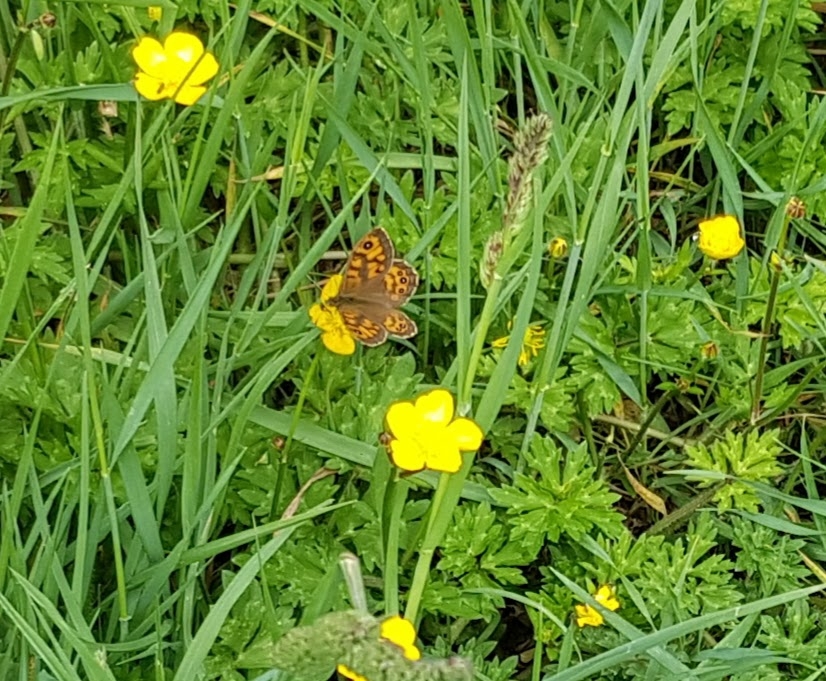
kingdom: Animalia
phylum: Arthropoda
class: Insecta
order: Lepidoptera
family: Nymphalidae
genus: Pararge
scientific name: Pararge Lasiommata megera
